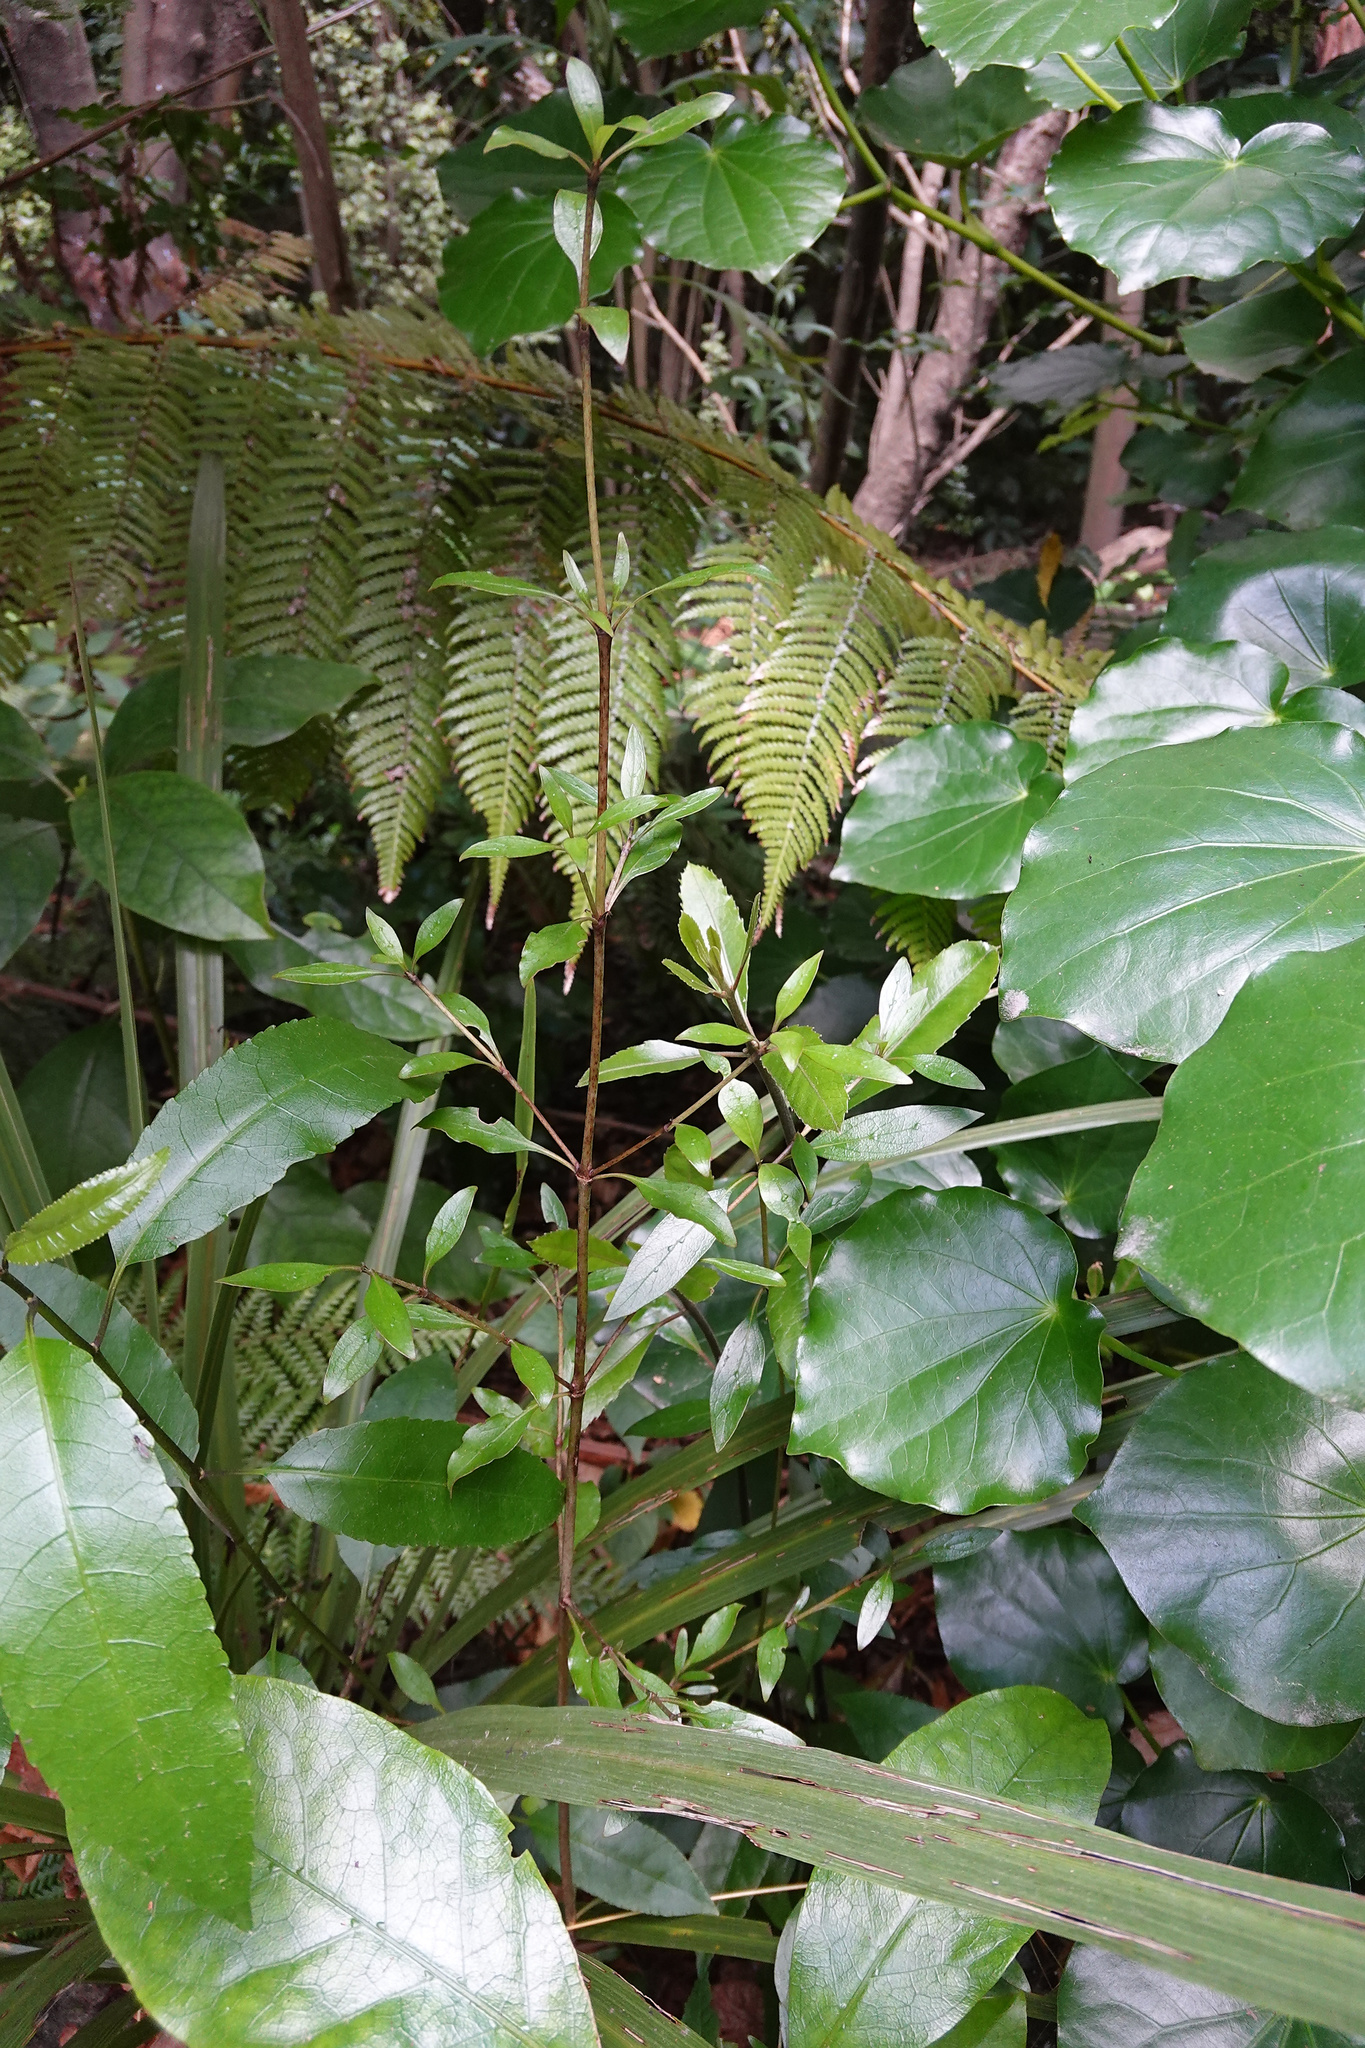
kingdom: Plantae
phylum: Tracheophyta
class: Magnoliopsida
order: Gentianales
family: Rubiaceae
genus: Coprosma
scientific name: Coprosma cunninghamii
